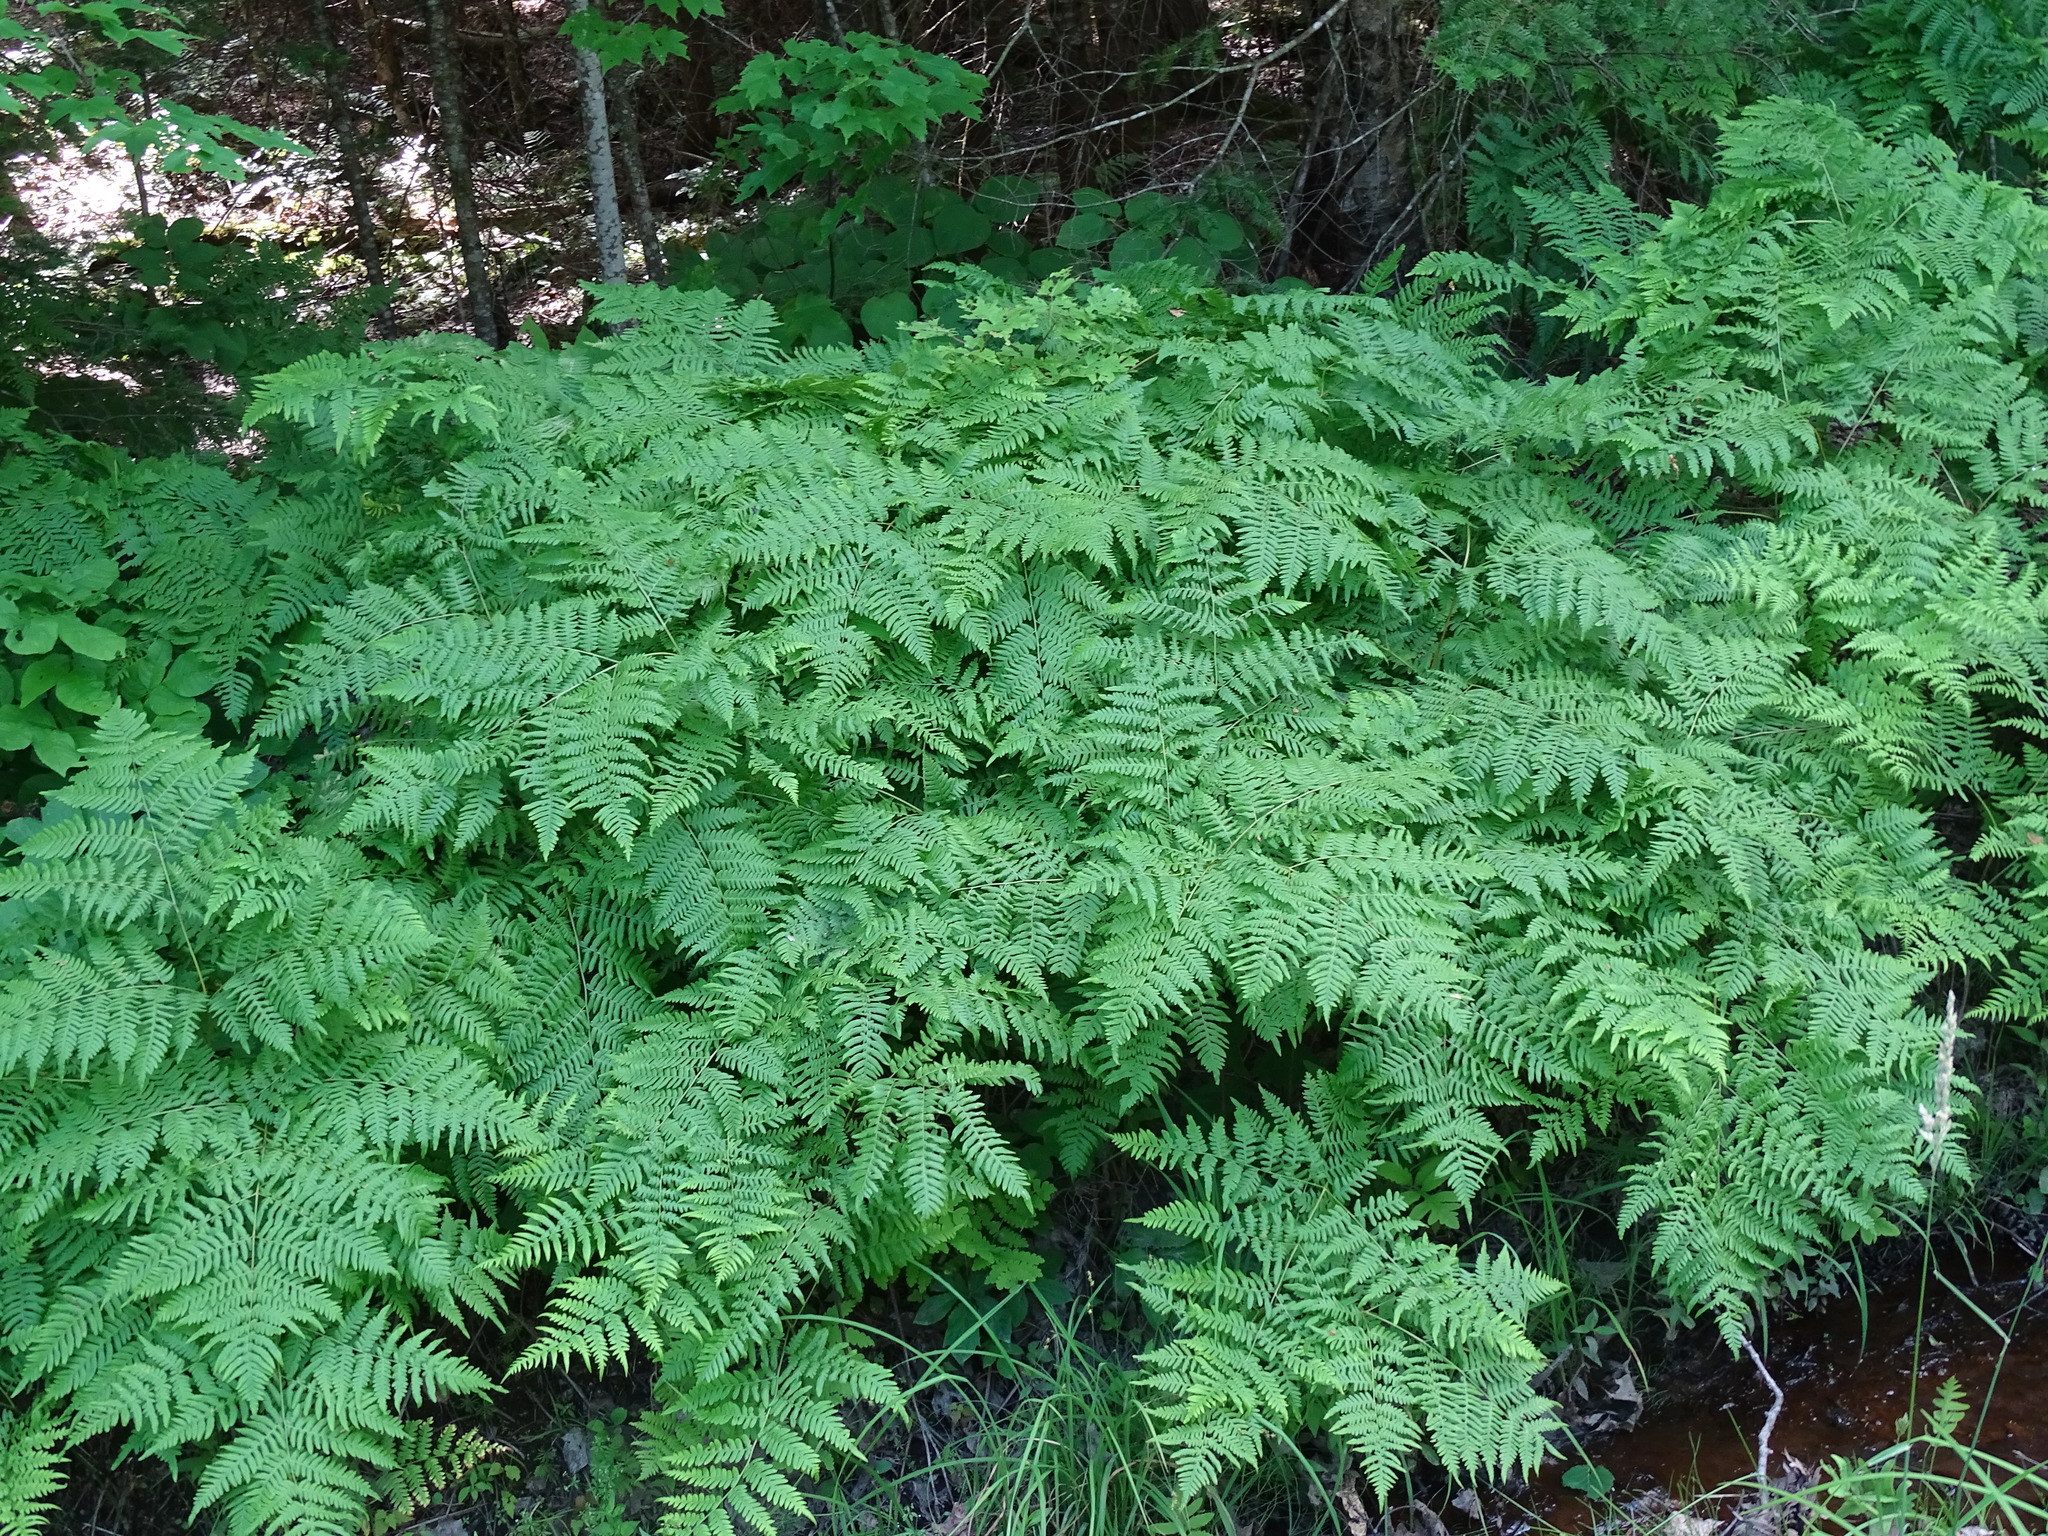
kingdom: Plantae
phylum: Tracheophyta
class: Polypodiopsida
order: Polypodiales
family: Dennstaedtiaceae
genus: Pteridium
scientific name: Pteridium aquilinum
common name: Bracken
